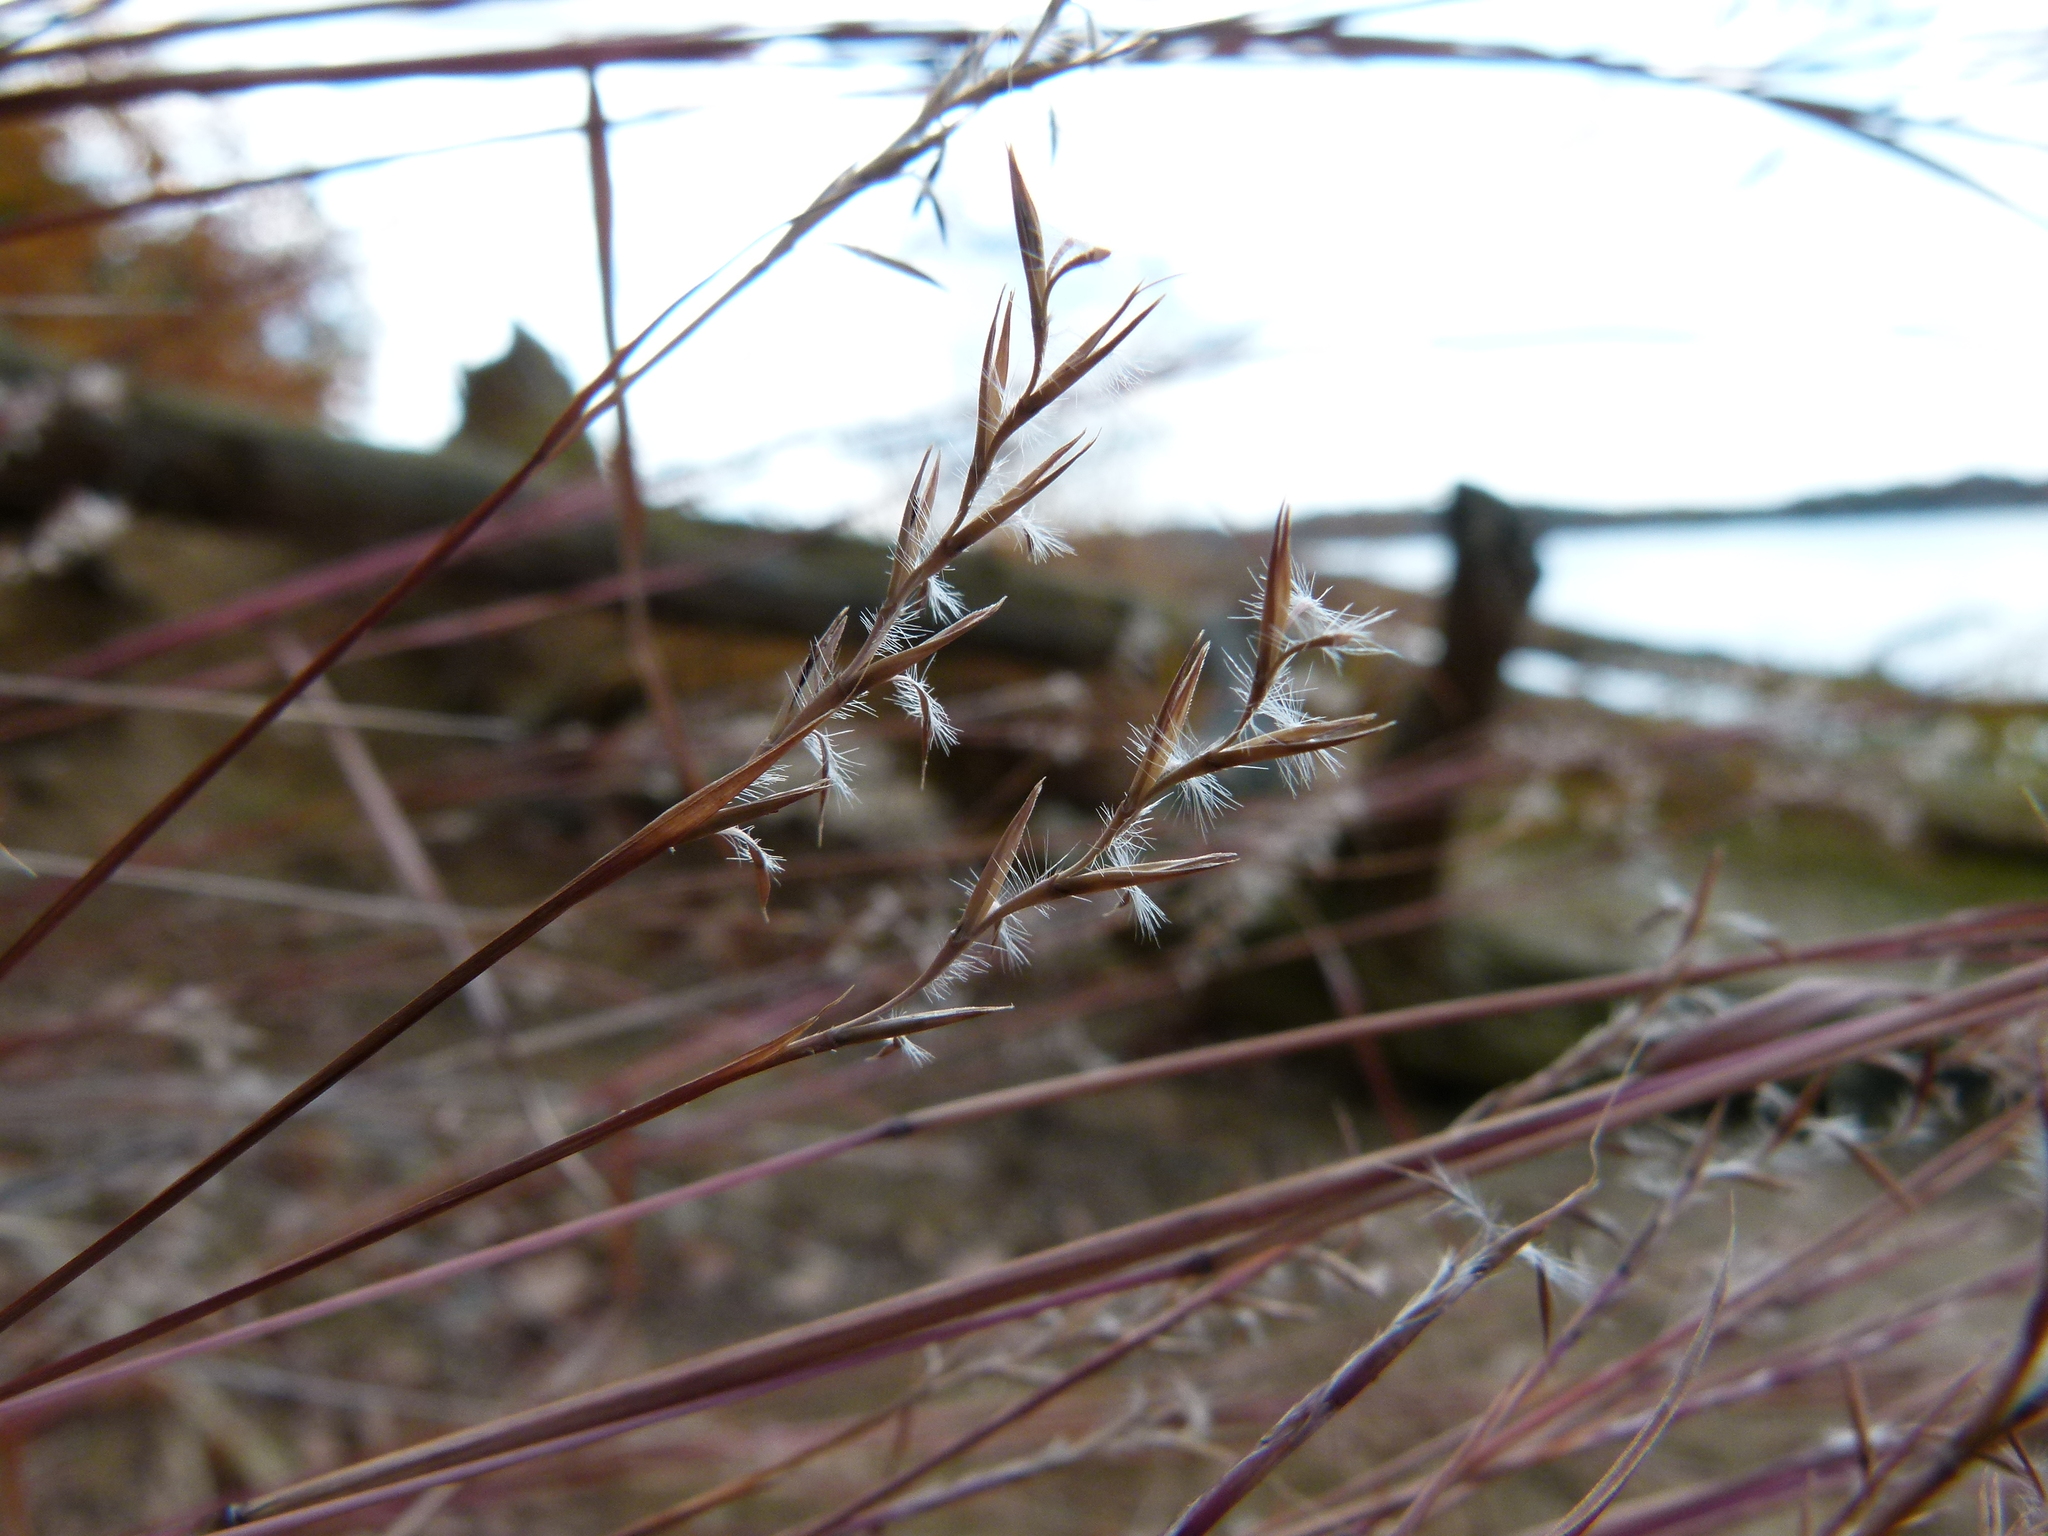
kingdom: Plantae
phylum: Tracheophyta
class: Liliopsida
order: Poales
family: Poaceae
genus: Schizachyrium
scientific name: Schizachyrium scoparium
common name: Little bluestem
